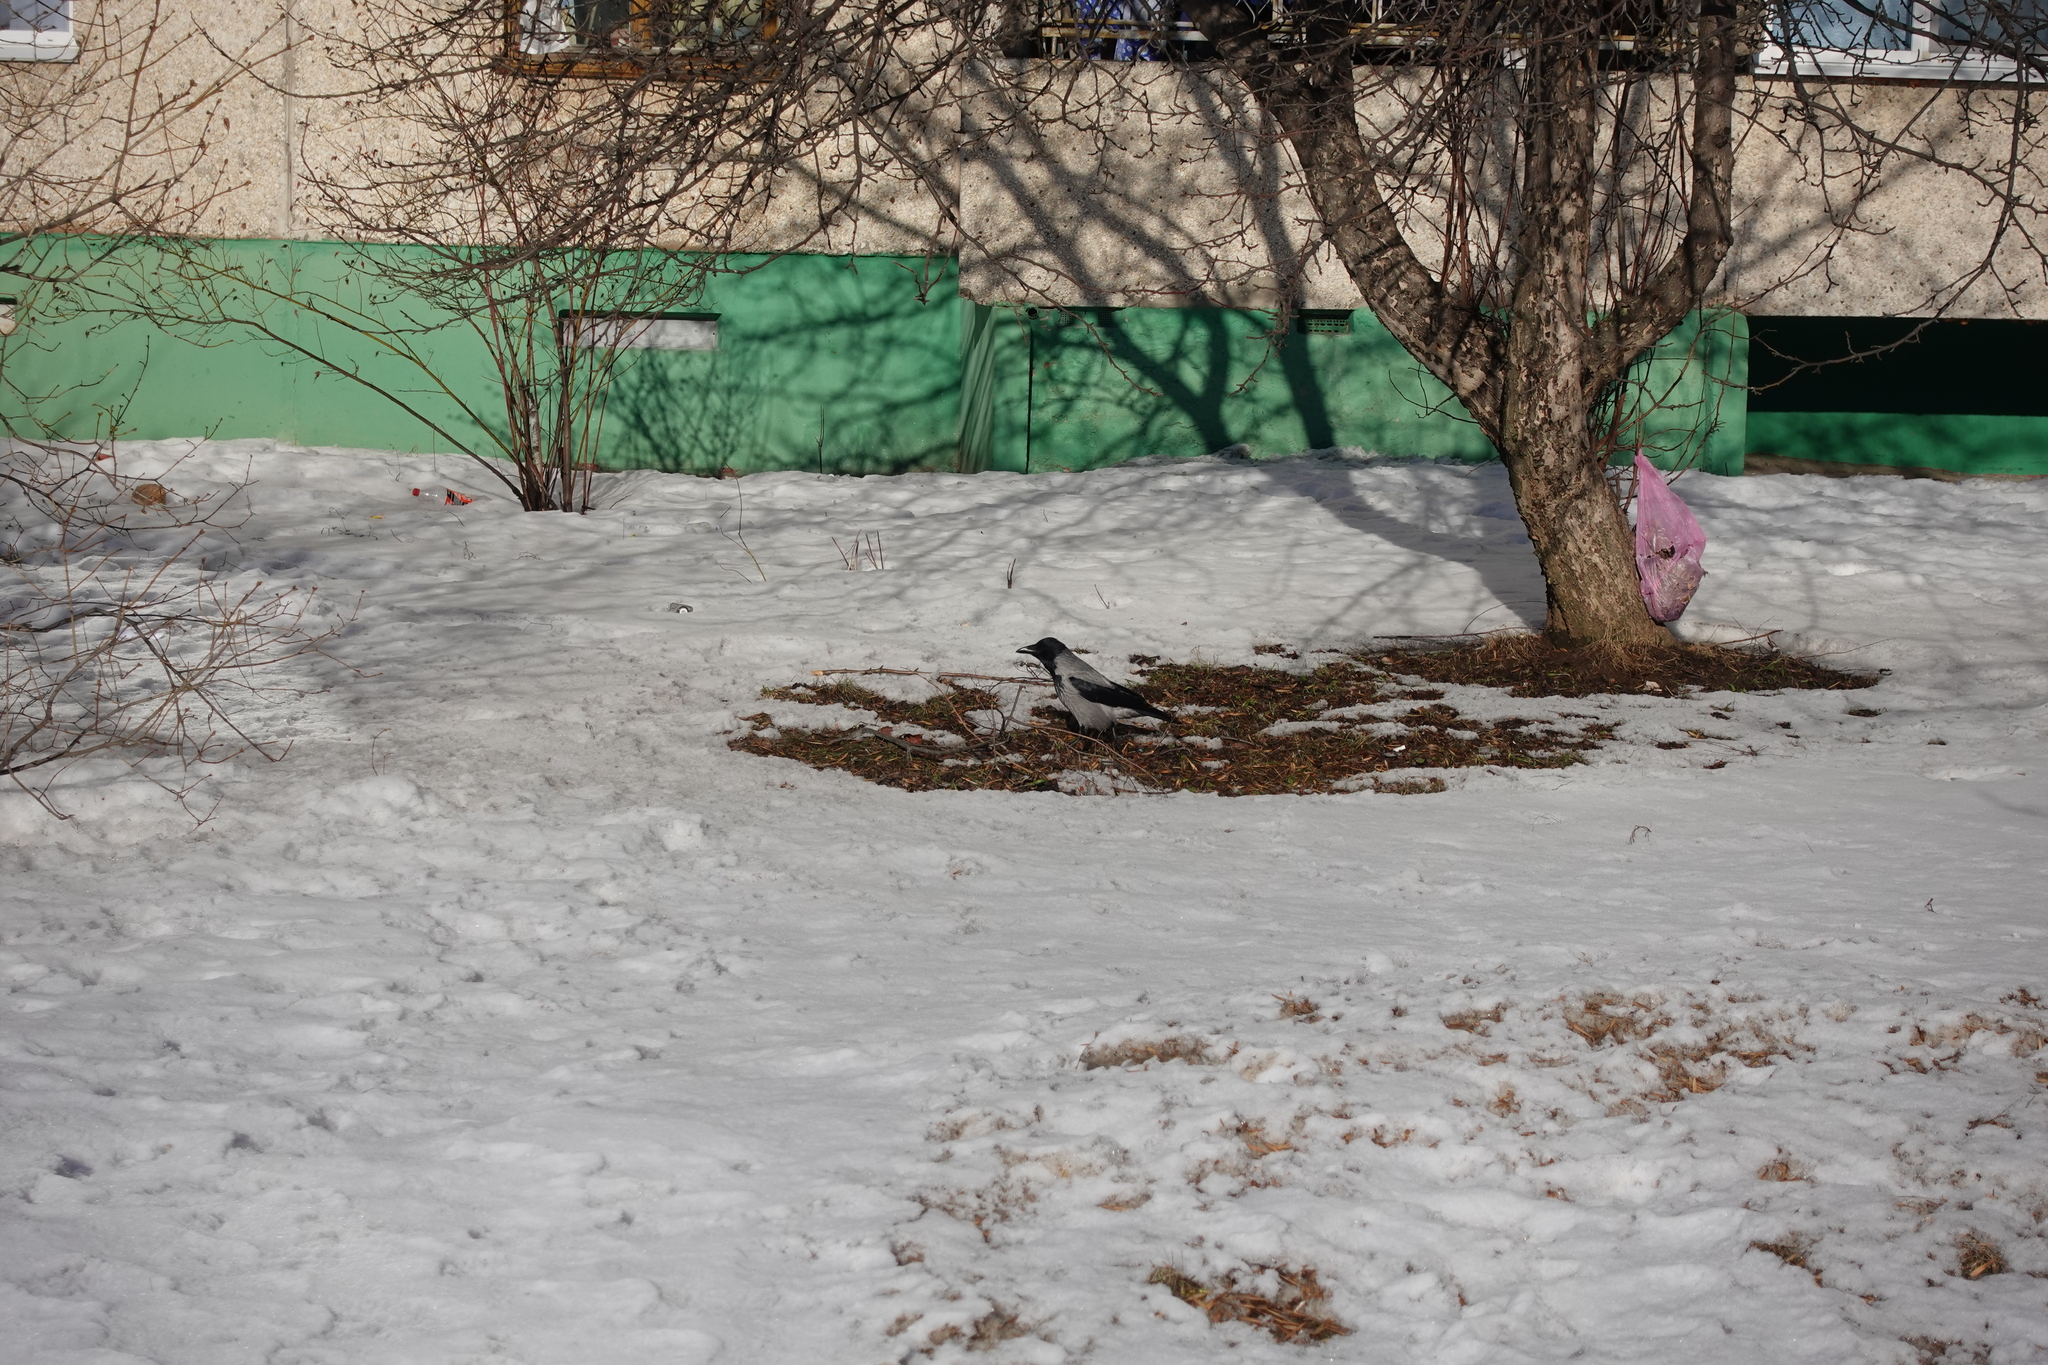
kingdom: Animalia
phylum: Chordata
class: Aves
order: Passeriformes
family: Corvidae
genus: Corvus
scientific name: Corvus cornix
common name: Hooded crow
